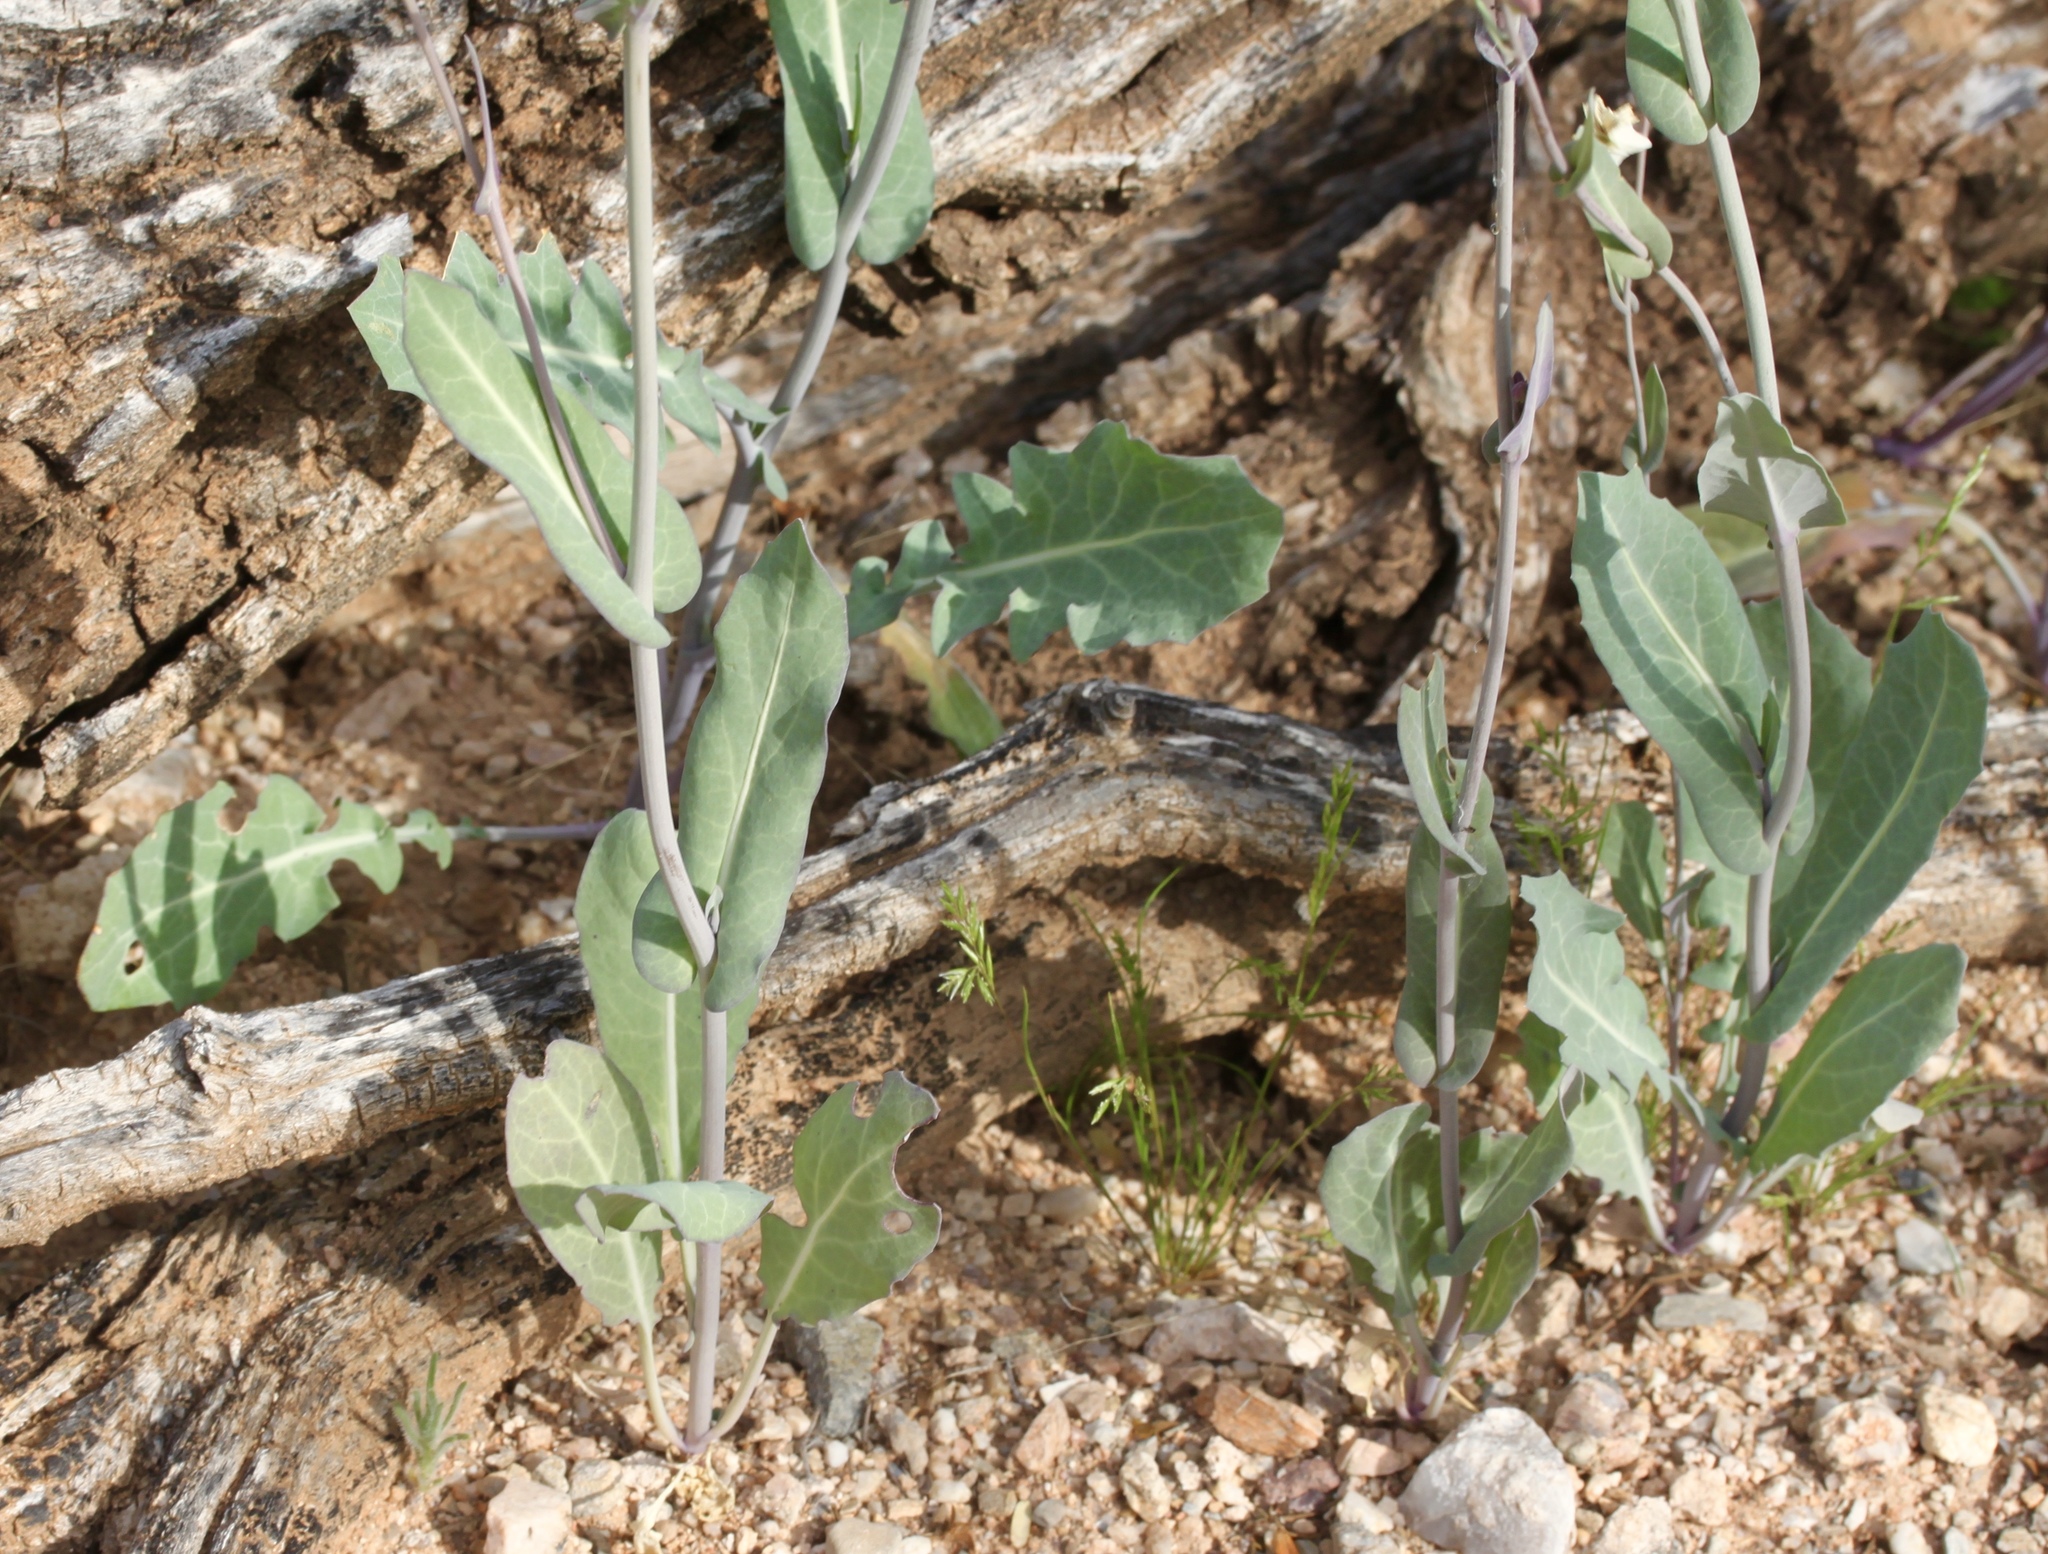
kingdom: Plantae
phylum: Tracheophyta
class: Magnoliopsida
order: Brassicales
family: Brassicaceae
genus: Streptanthus
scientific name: Streptanthus carinatus
